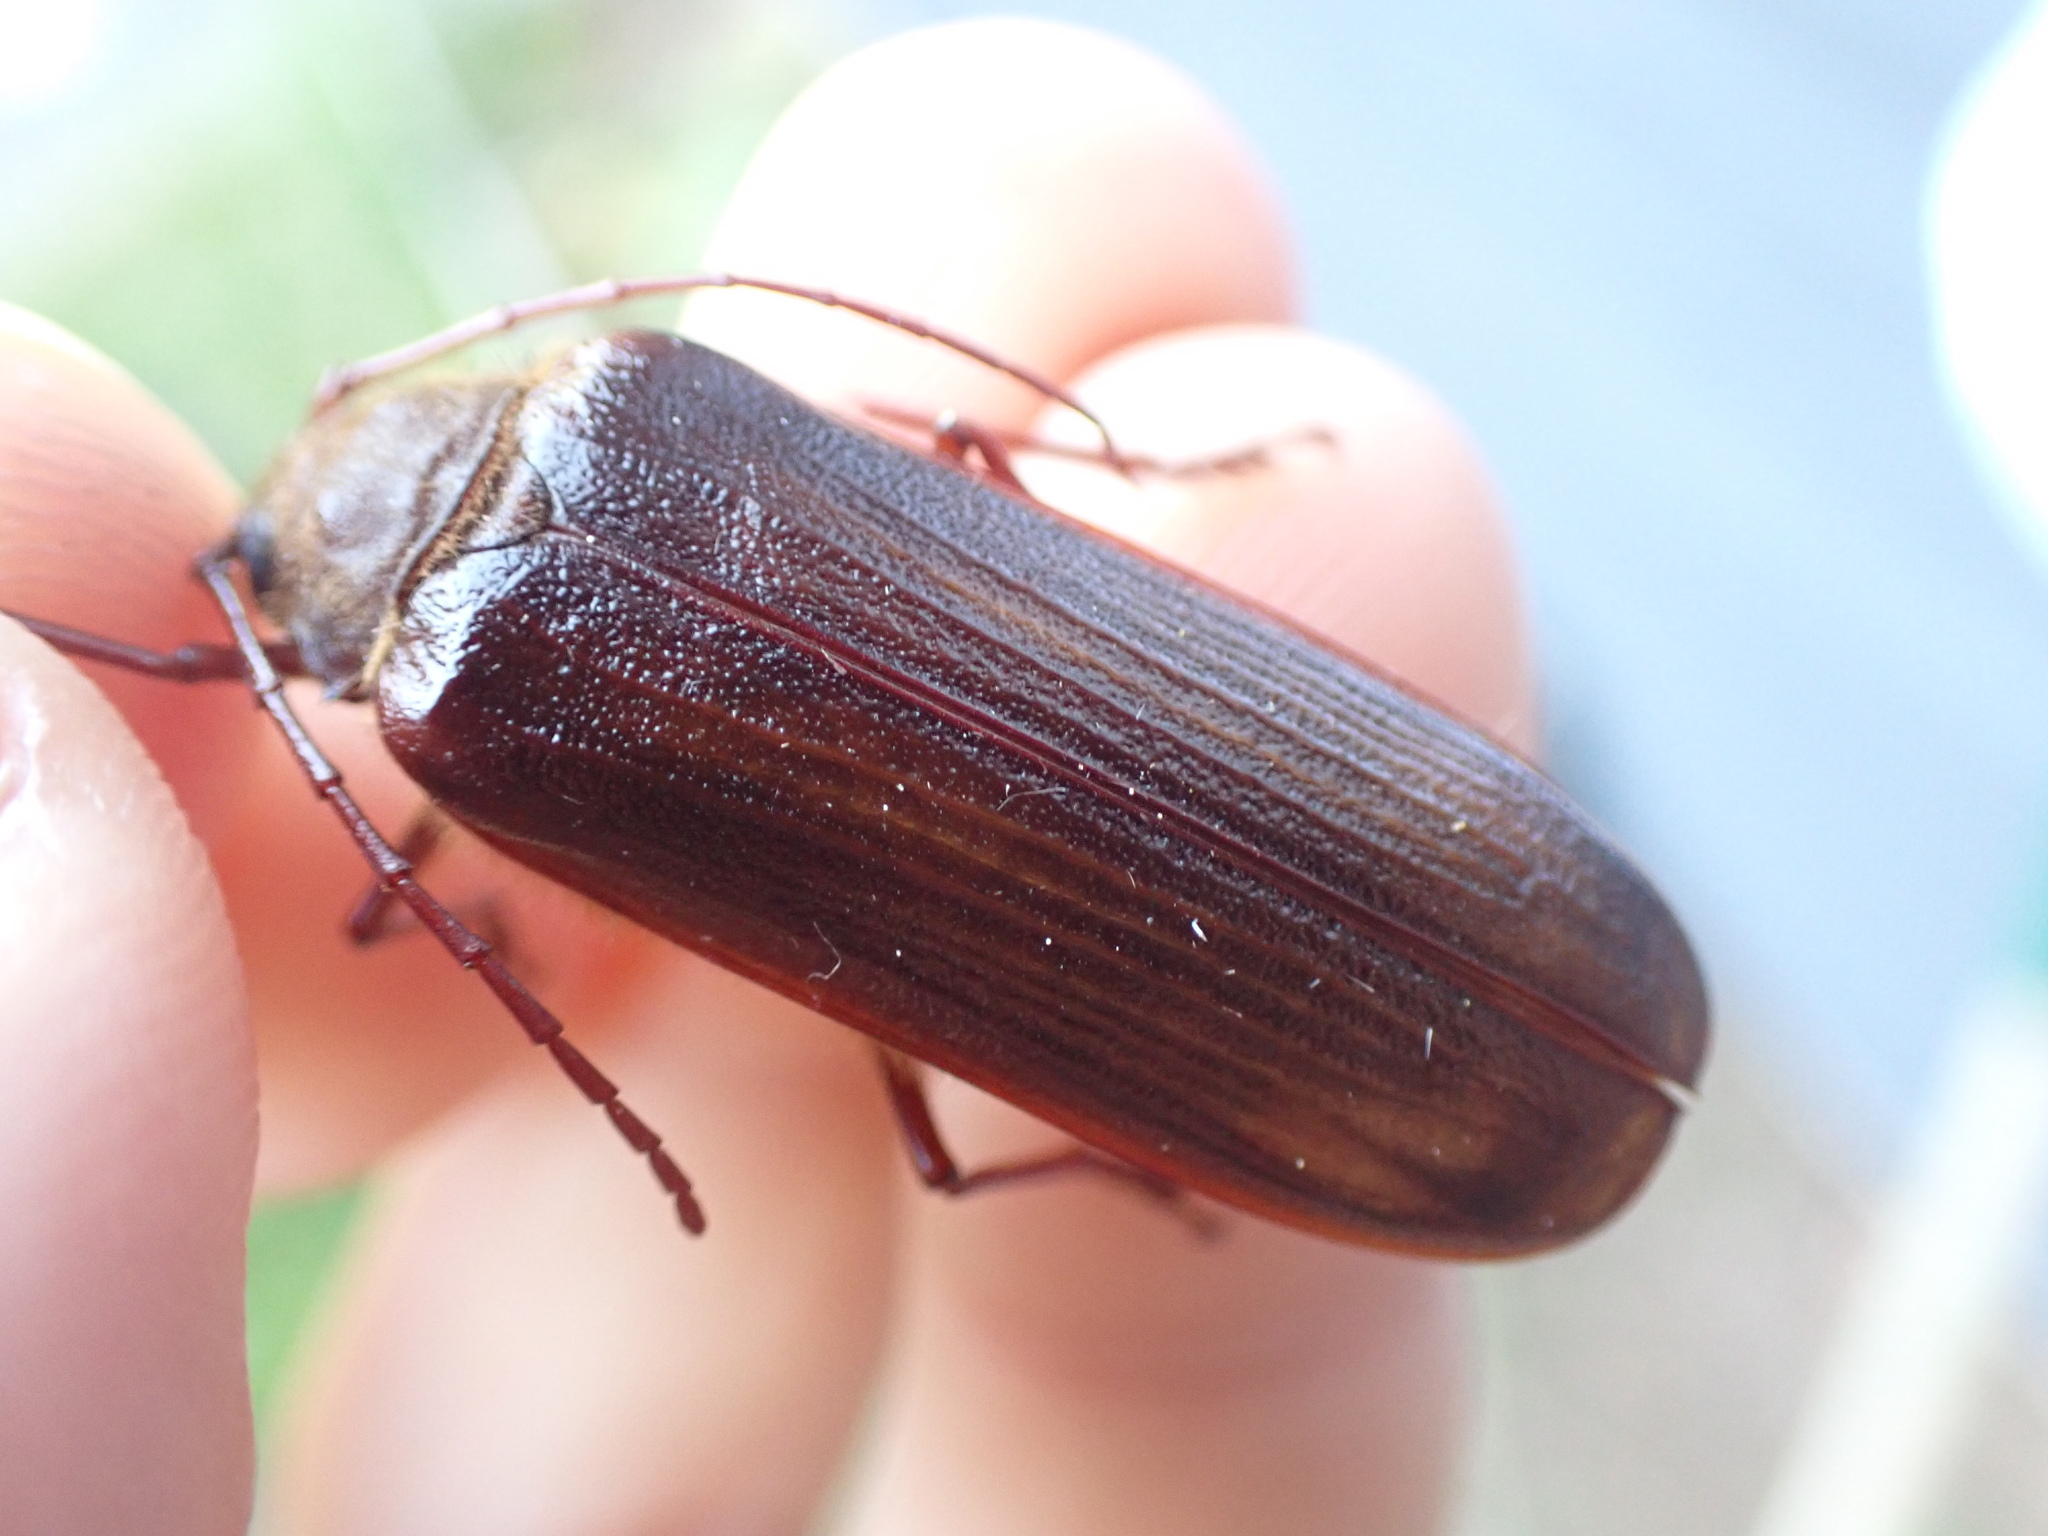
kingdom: Animalia
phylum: Arthropoda
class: Insecta
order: Coleoptera
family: Cerambycidae
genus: Tragosoma
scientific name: Tragosoma harrisii
